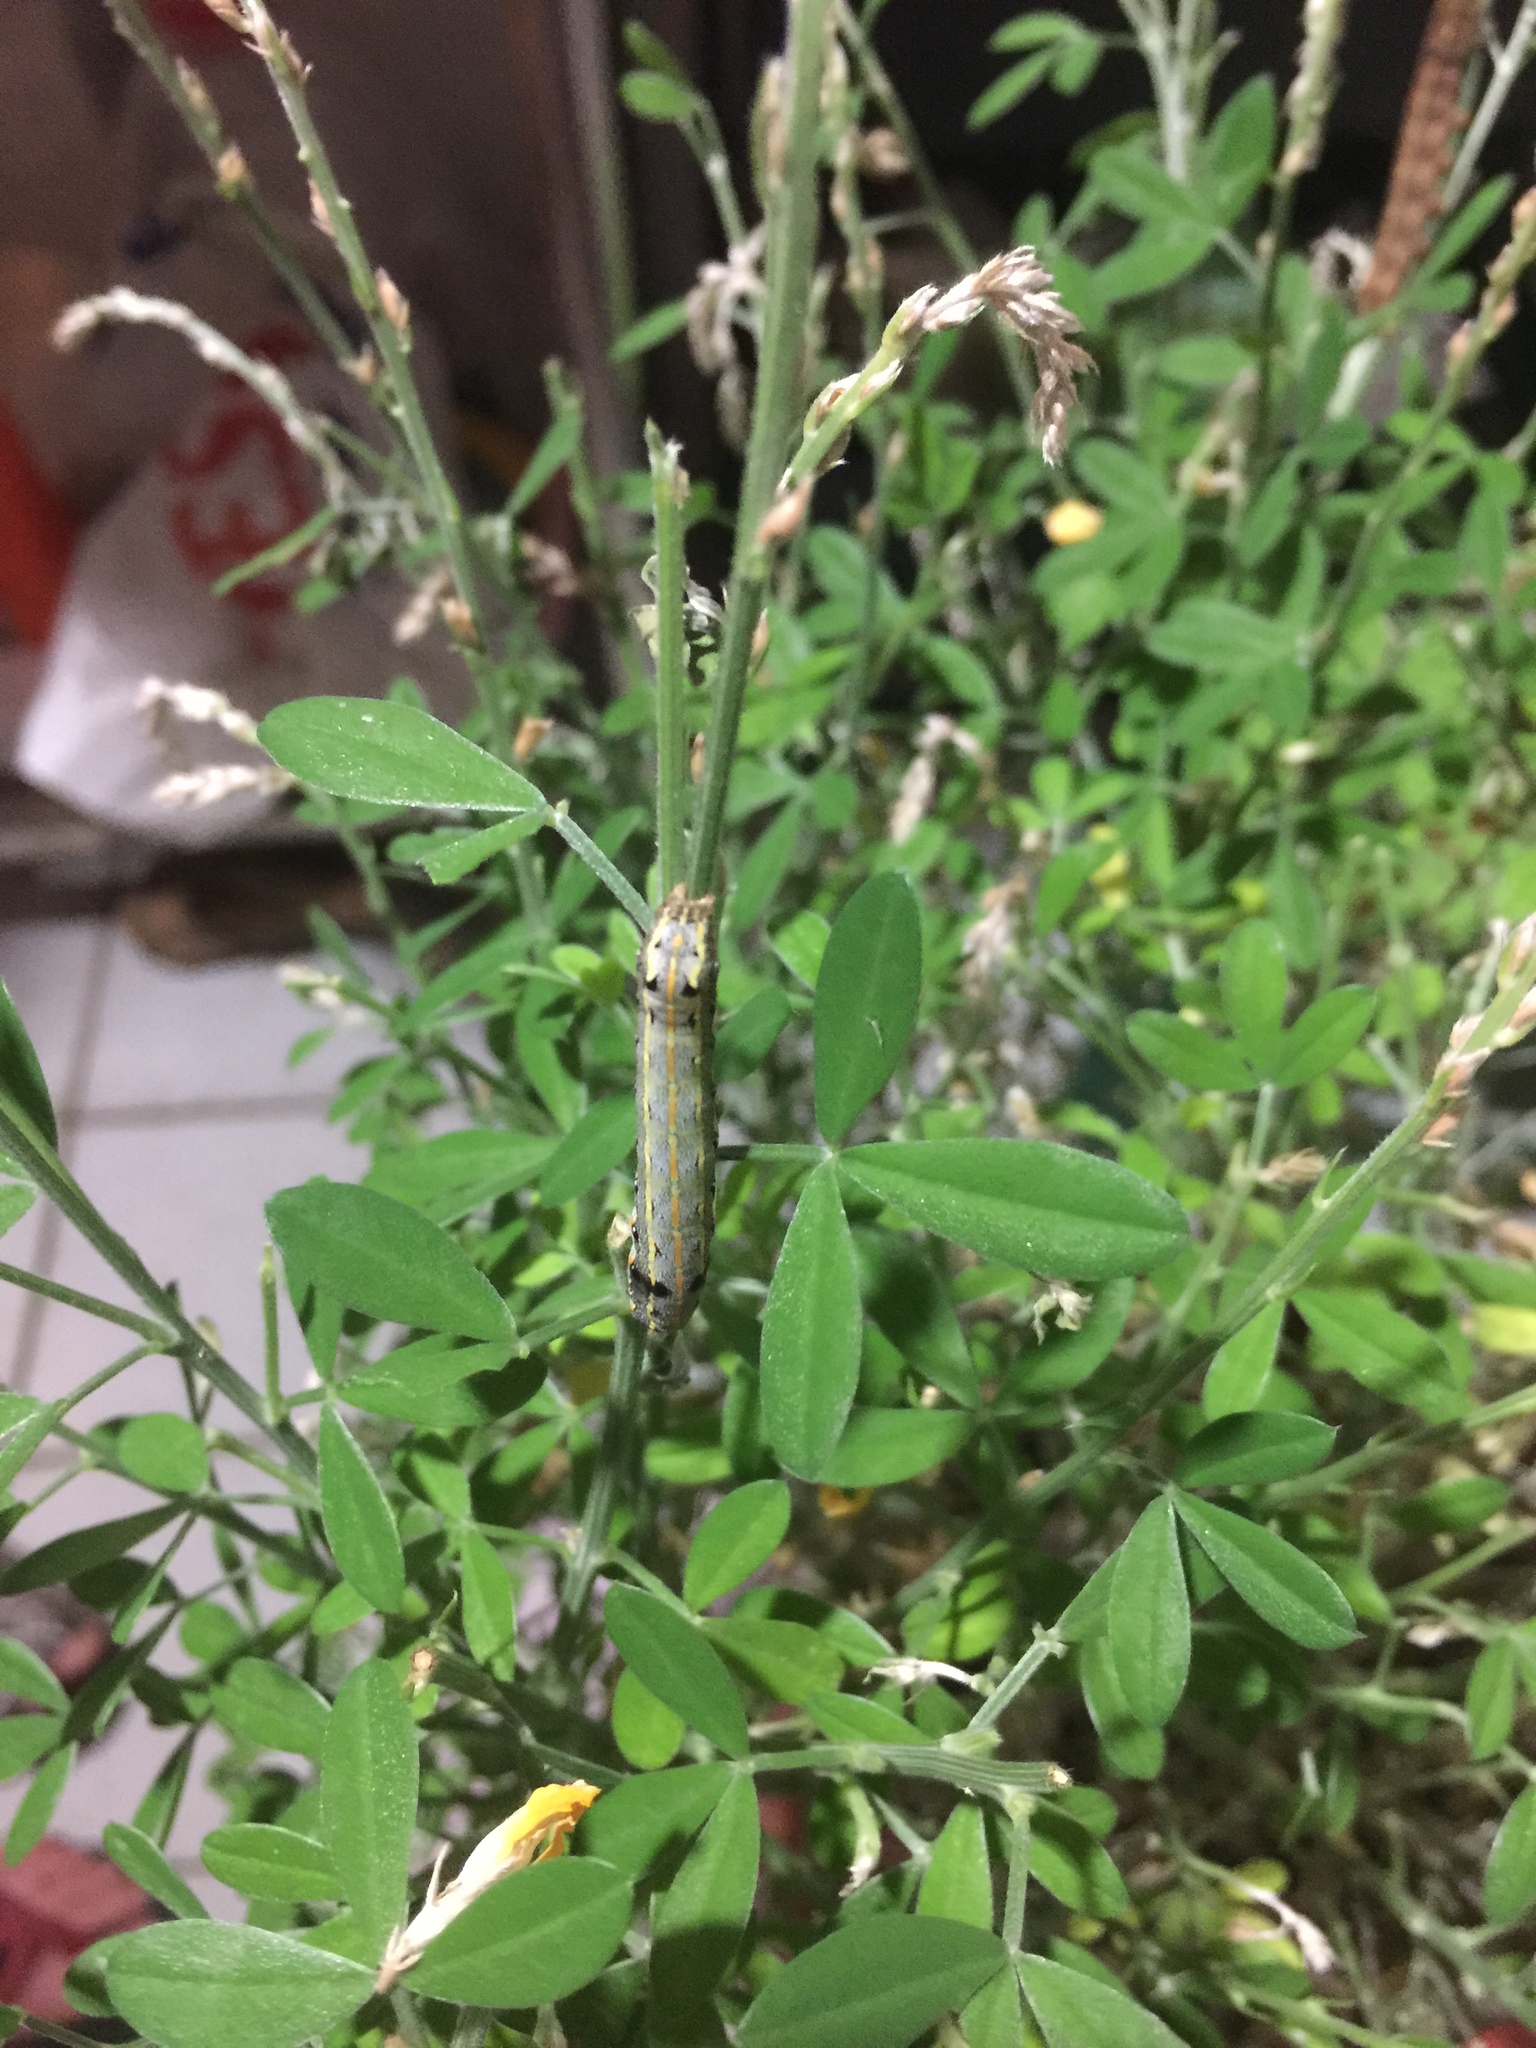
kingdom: Animalia
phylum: Arthropoda
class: Insecta
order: Lepidoptera
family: Noctuidae
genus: Spodoptera
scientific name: Spodoptera litura
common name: Asian cotton leafworm
